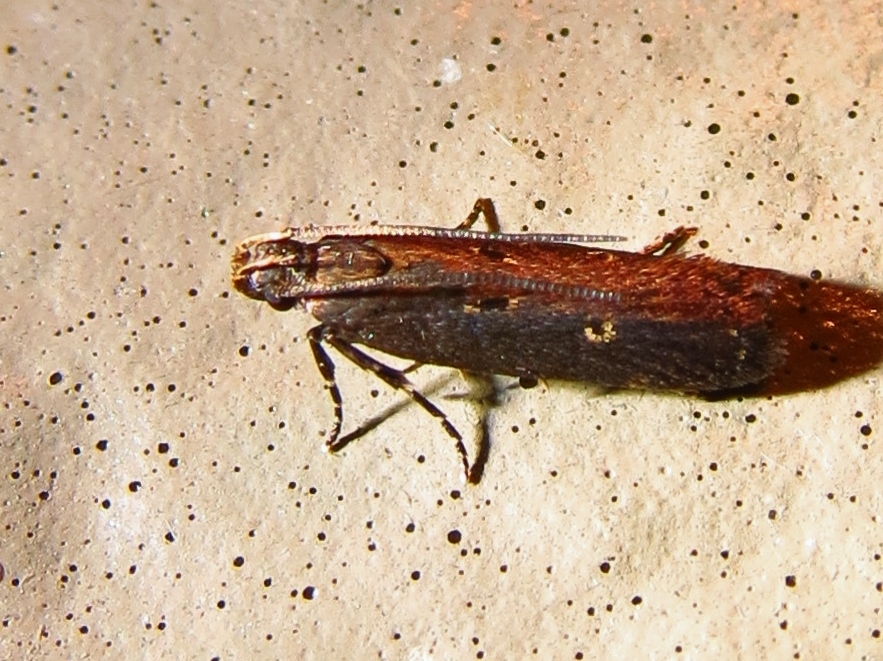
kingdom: Animalia
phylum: Arthropoda
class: Insecta
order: Lepidoptera
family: Gelechiidae
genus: Chionodes
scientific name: Chionodes discoocellella
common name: Eye-ringed chionodes moth
